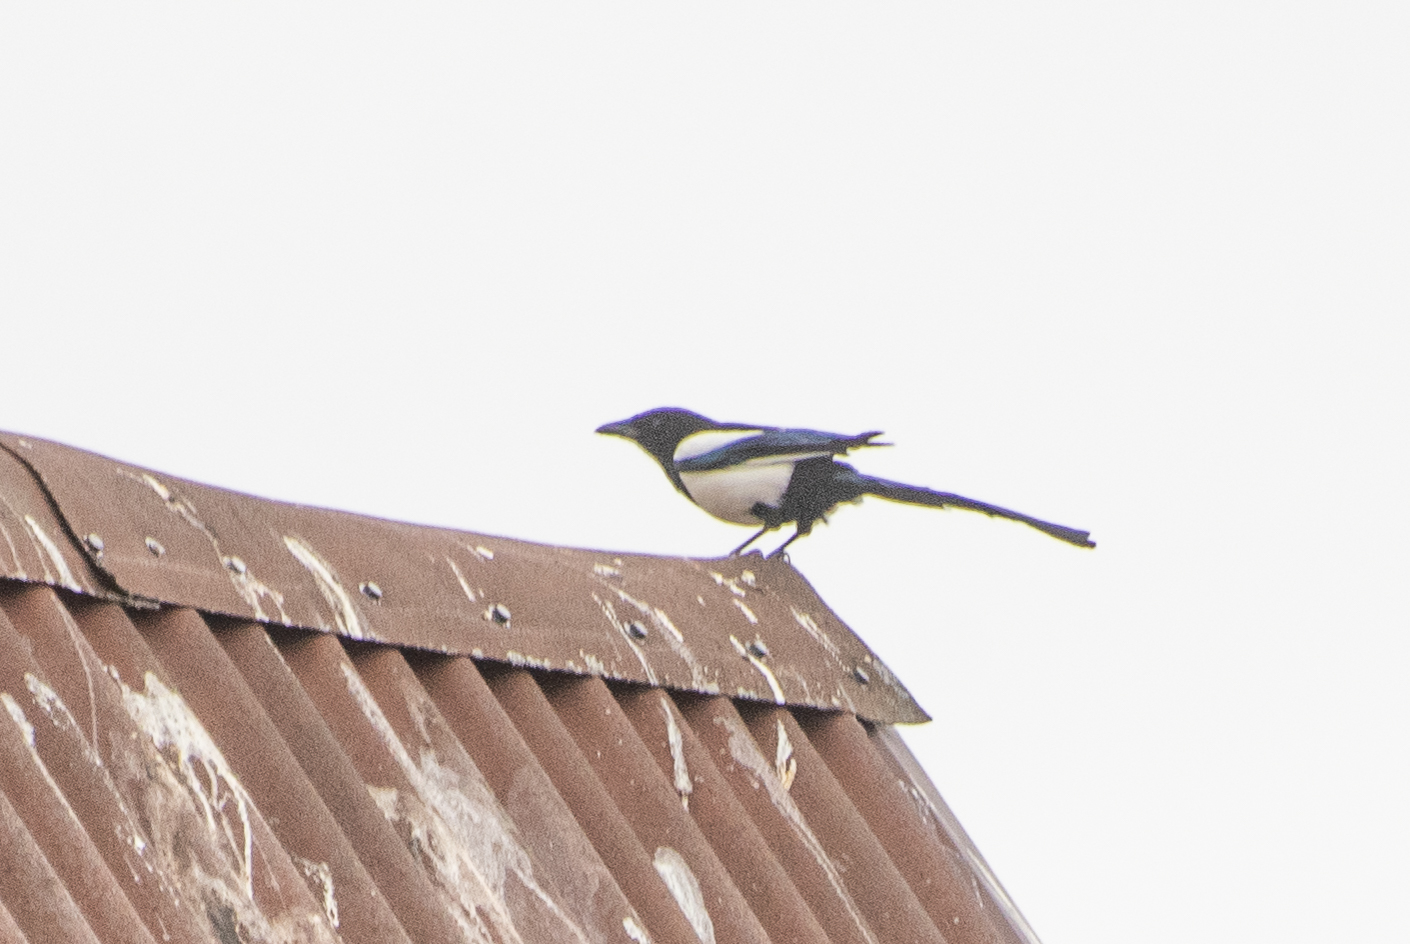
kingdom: Animalia
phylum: Chordata
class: Aves
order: Passeriformes
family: Corvidae
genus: Pica
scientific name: Pica pica
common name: Eurasian magpie
